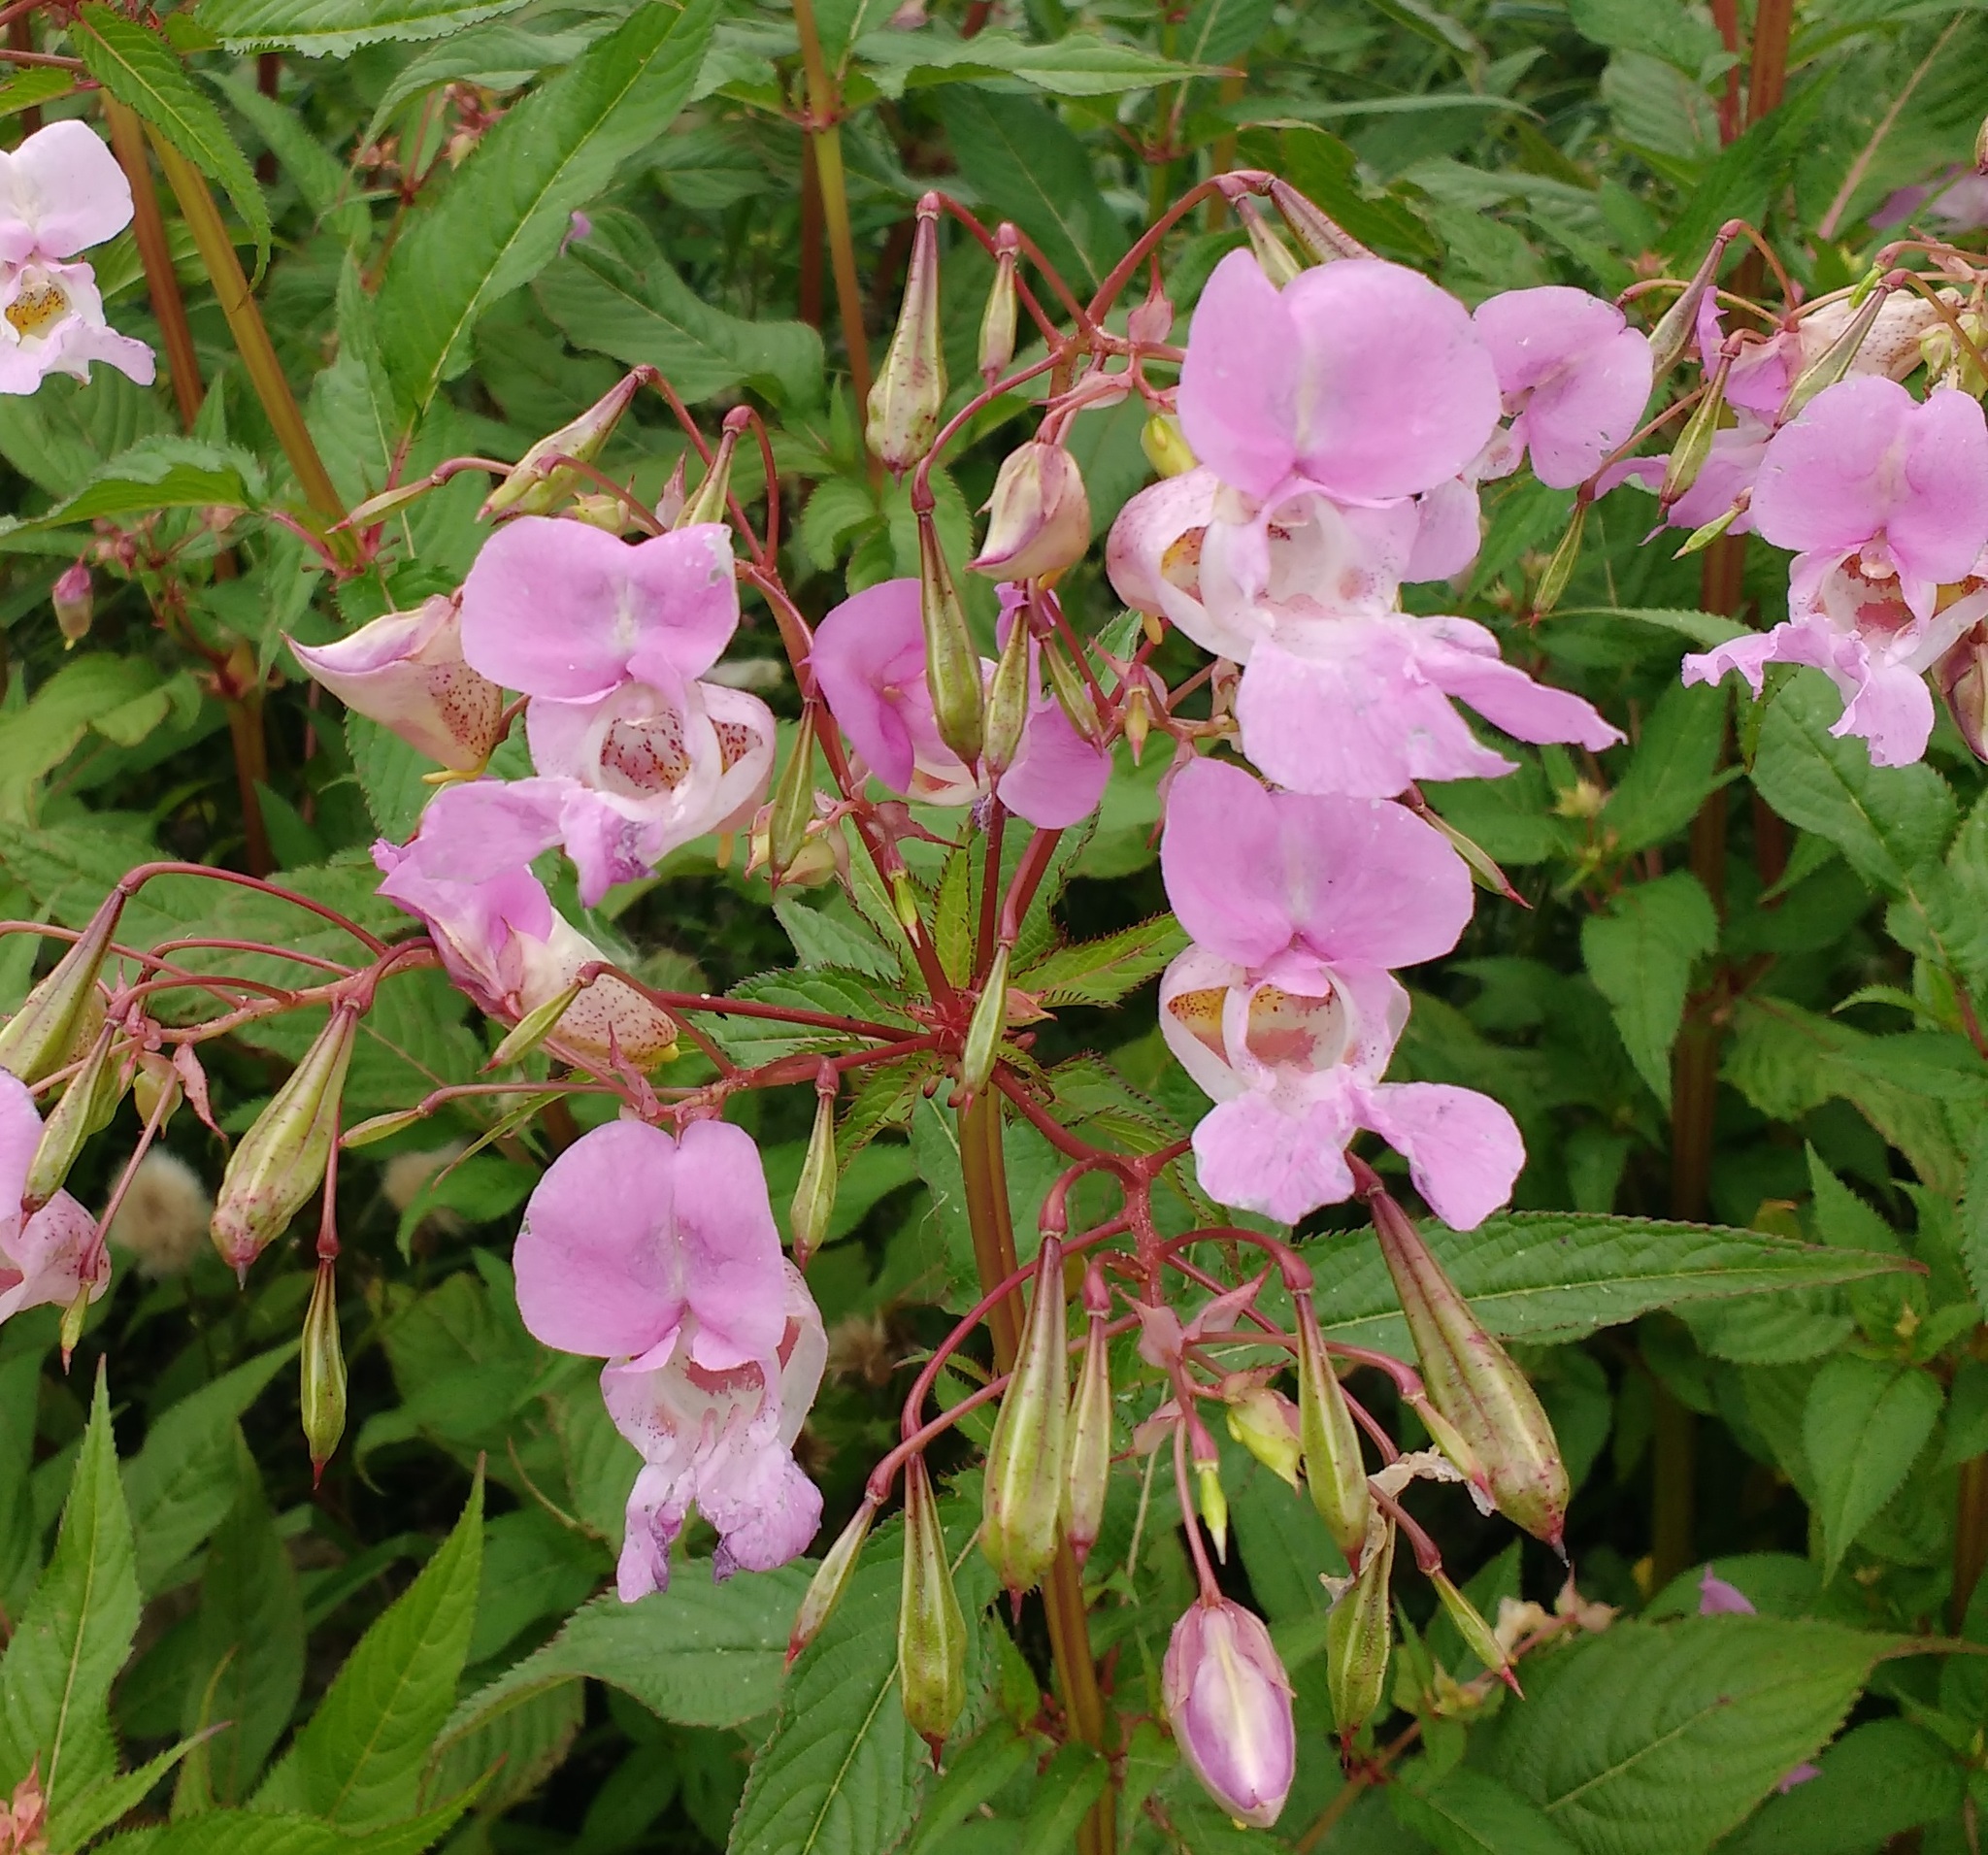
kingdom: Plantae
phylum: Tracheophyta
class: Magnoliopsida
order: Ericales
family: Balsaminaceae
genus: Impatiens
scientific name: Impatiens glandulifera
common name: Himalayan balsam
